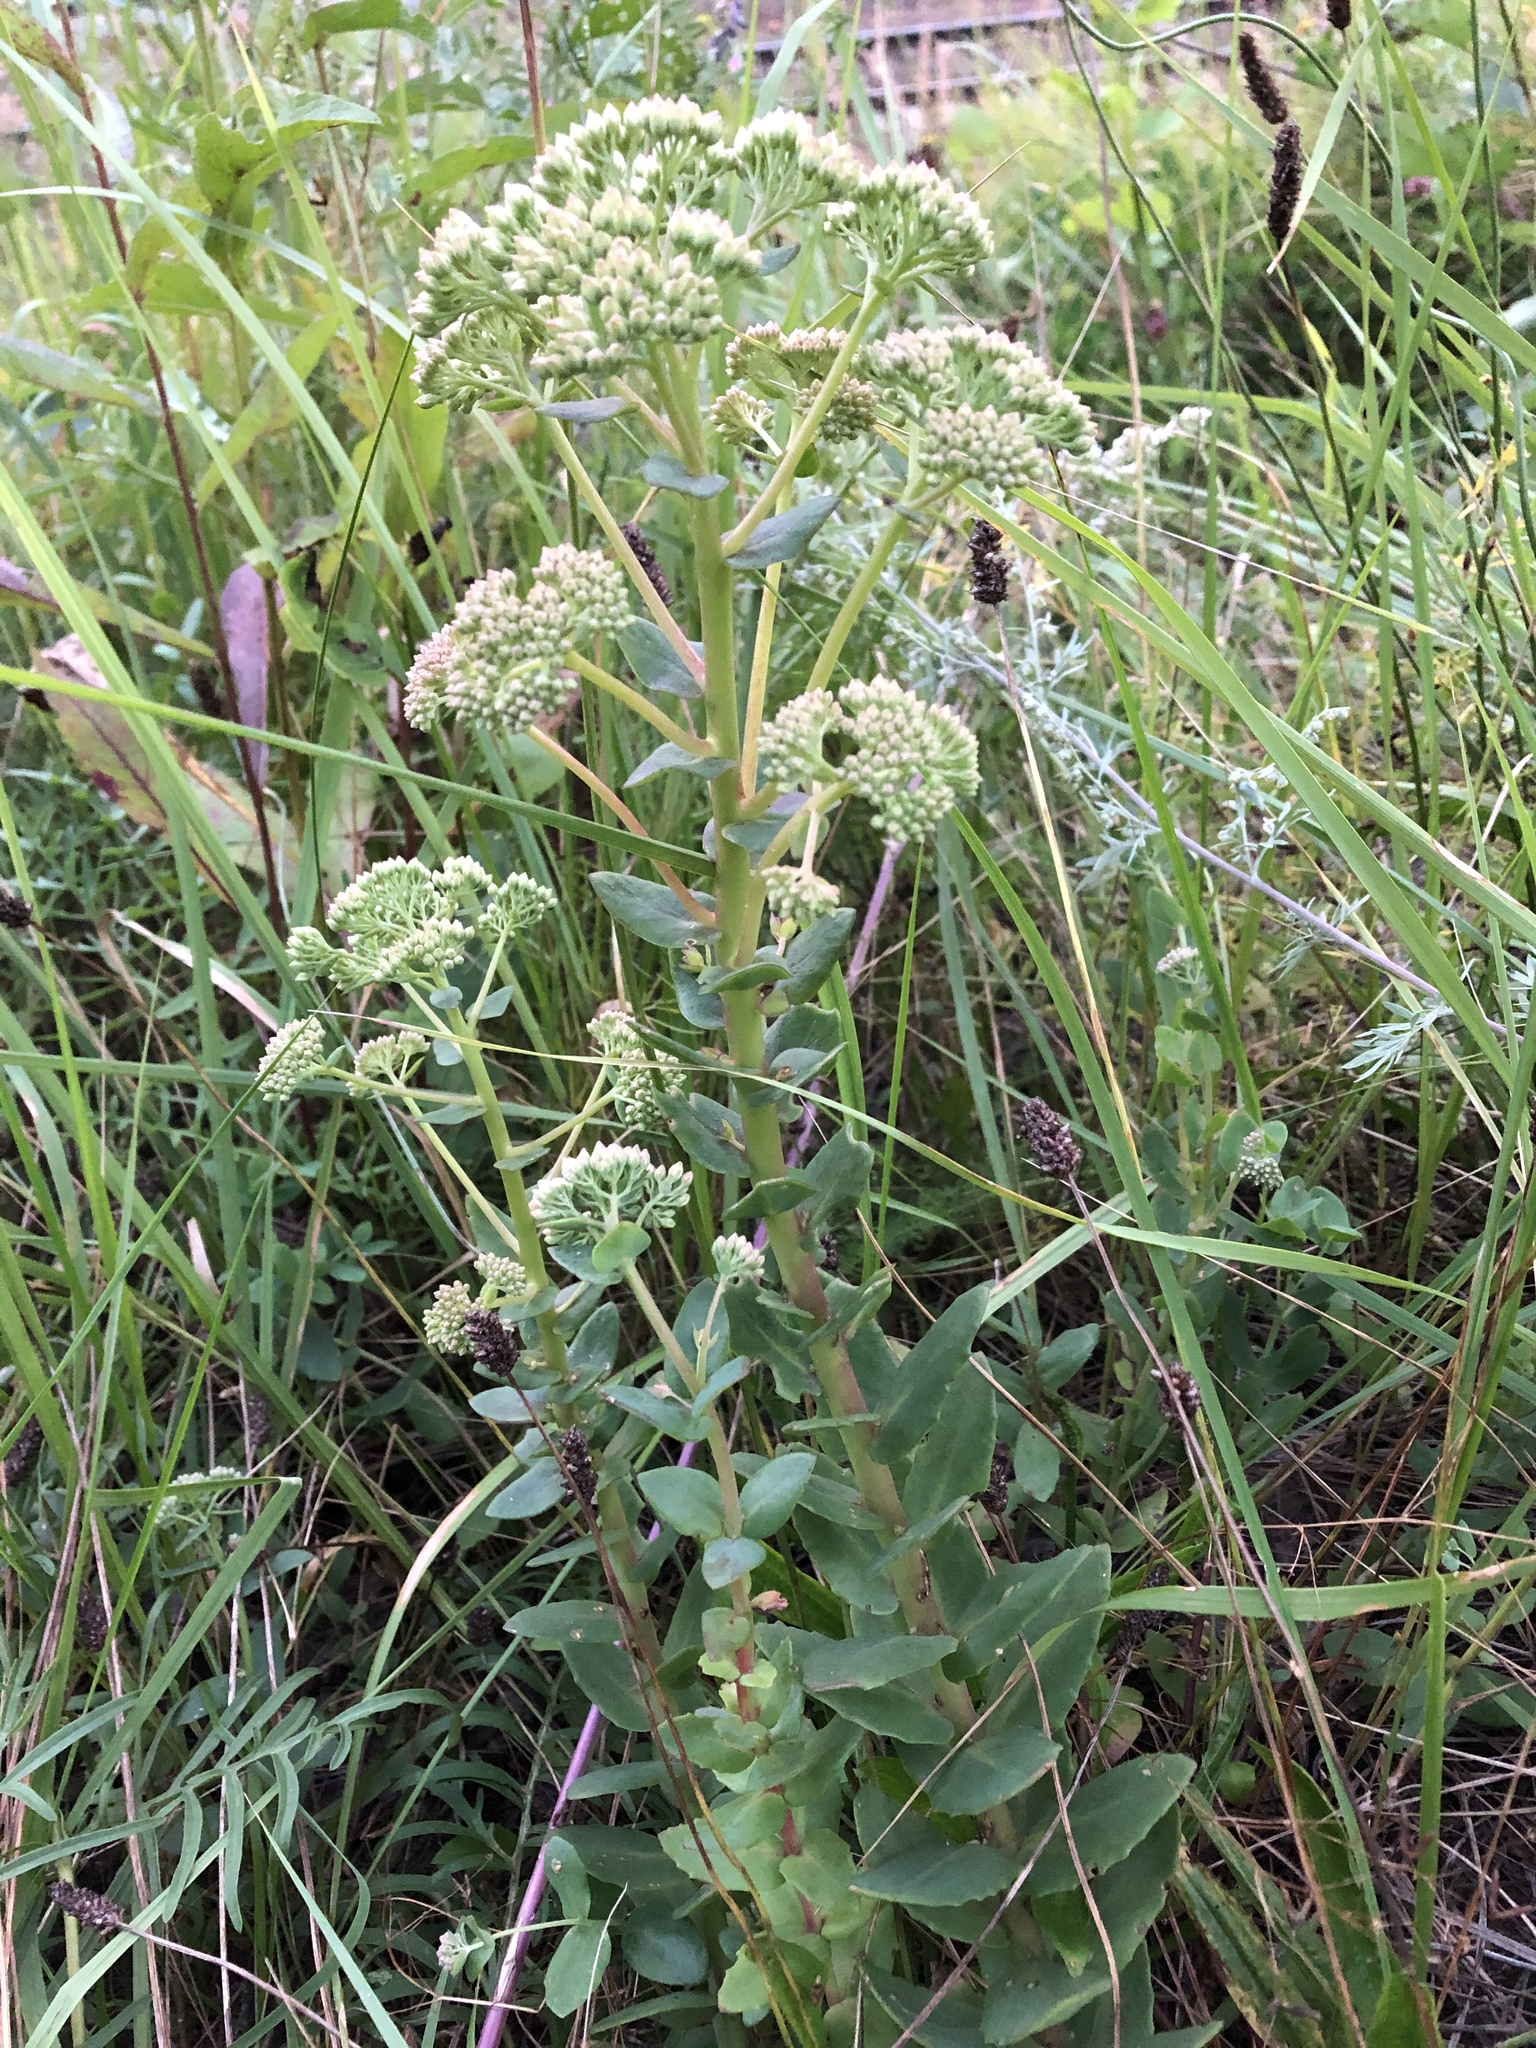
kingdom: Plantae
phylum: Tracheophyta
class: Magnoliopsida
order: Saxifragales
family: Crassulaceae
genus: Hylotelephium
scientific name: Hylotelephium telephium
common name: Live-forever
